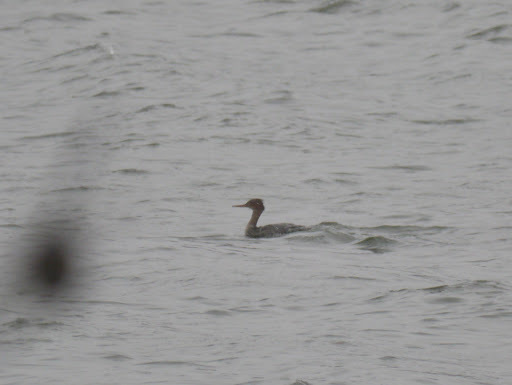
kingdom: Animalia
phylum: Chordata
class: Aves
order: Anseriformes
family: Anatidae
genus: Mergus
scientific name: Mergus serrator
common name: Red-breasted merganser
